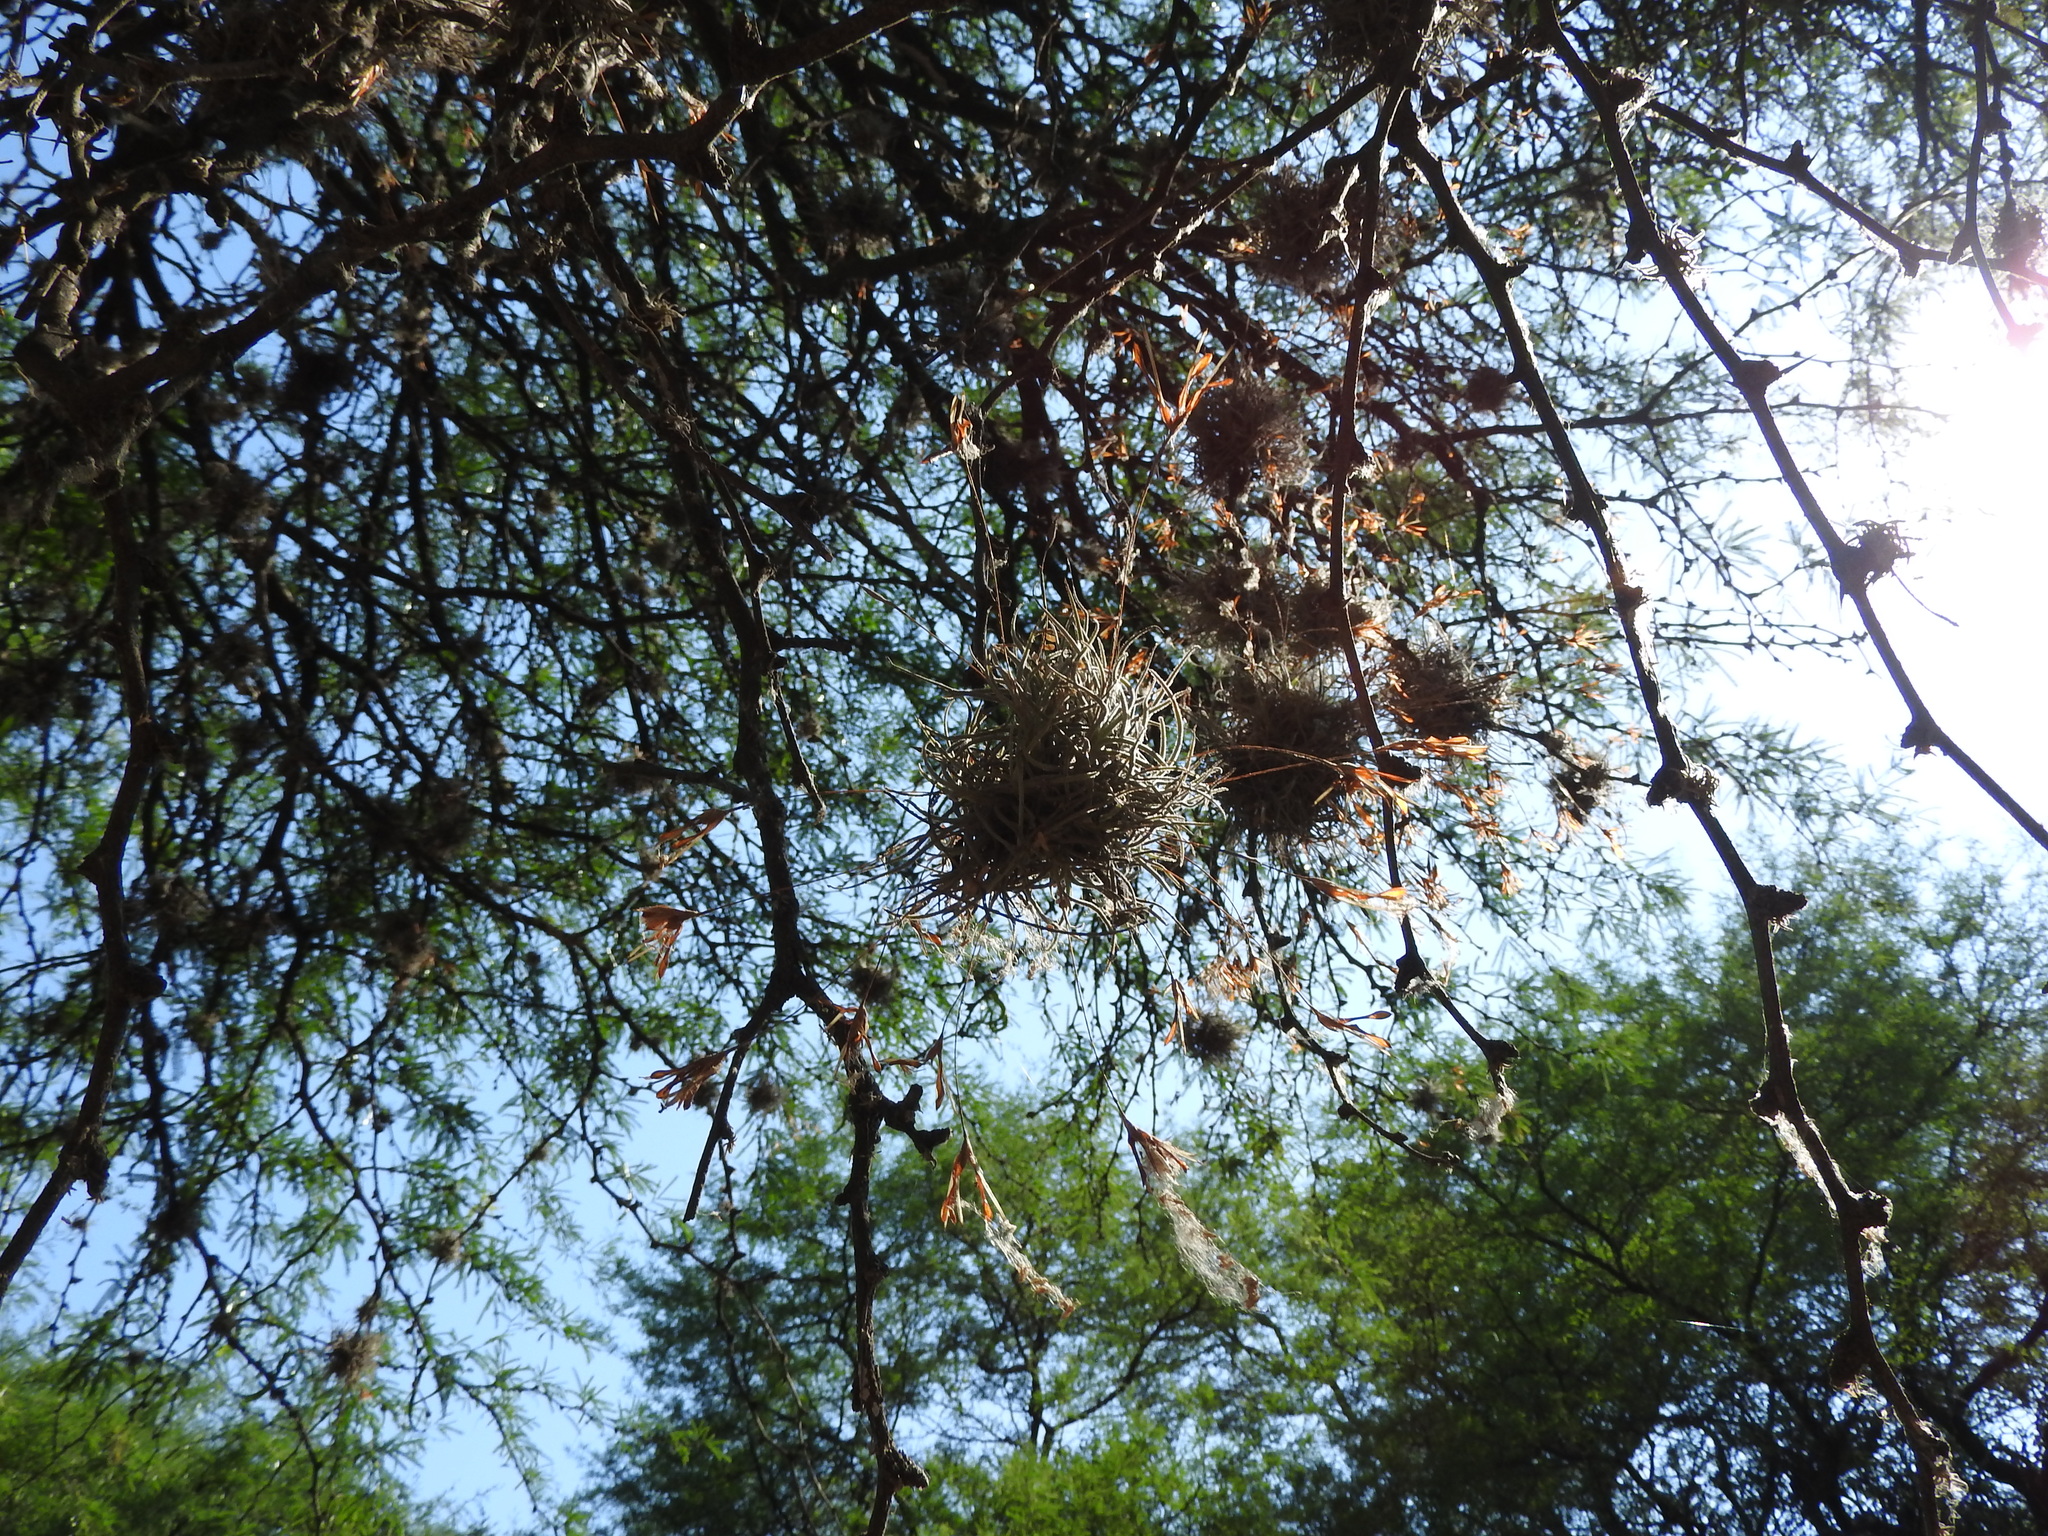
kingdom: Plantae
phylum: Tracheophyta
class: Liliopsida
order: Poales
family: Bromeliaceae
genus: Tillandsia
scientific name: Tillandsia recurvata
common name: Small ballmoss
